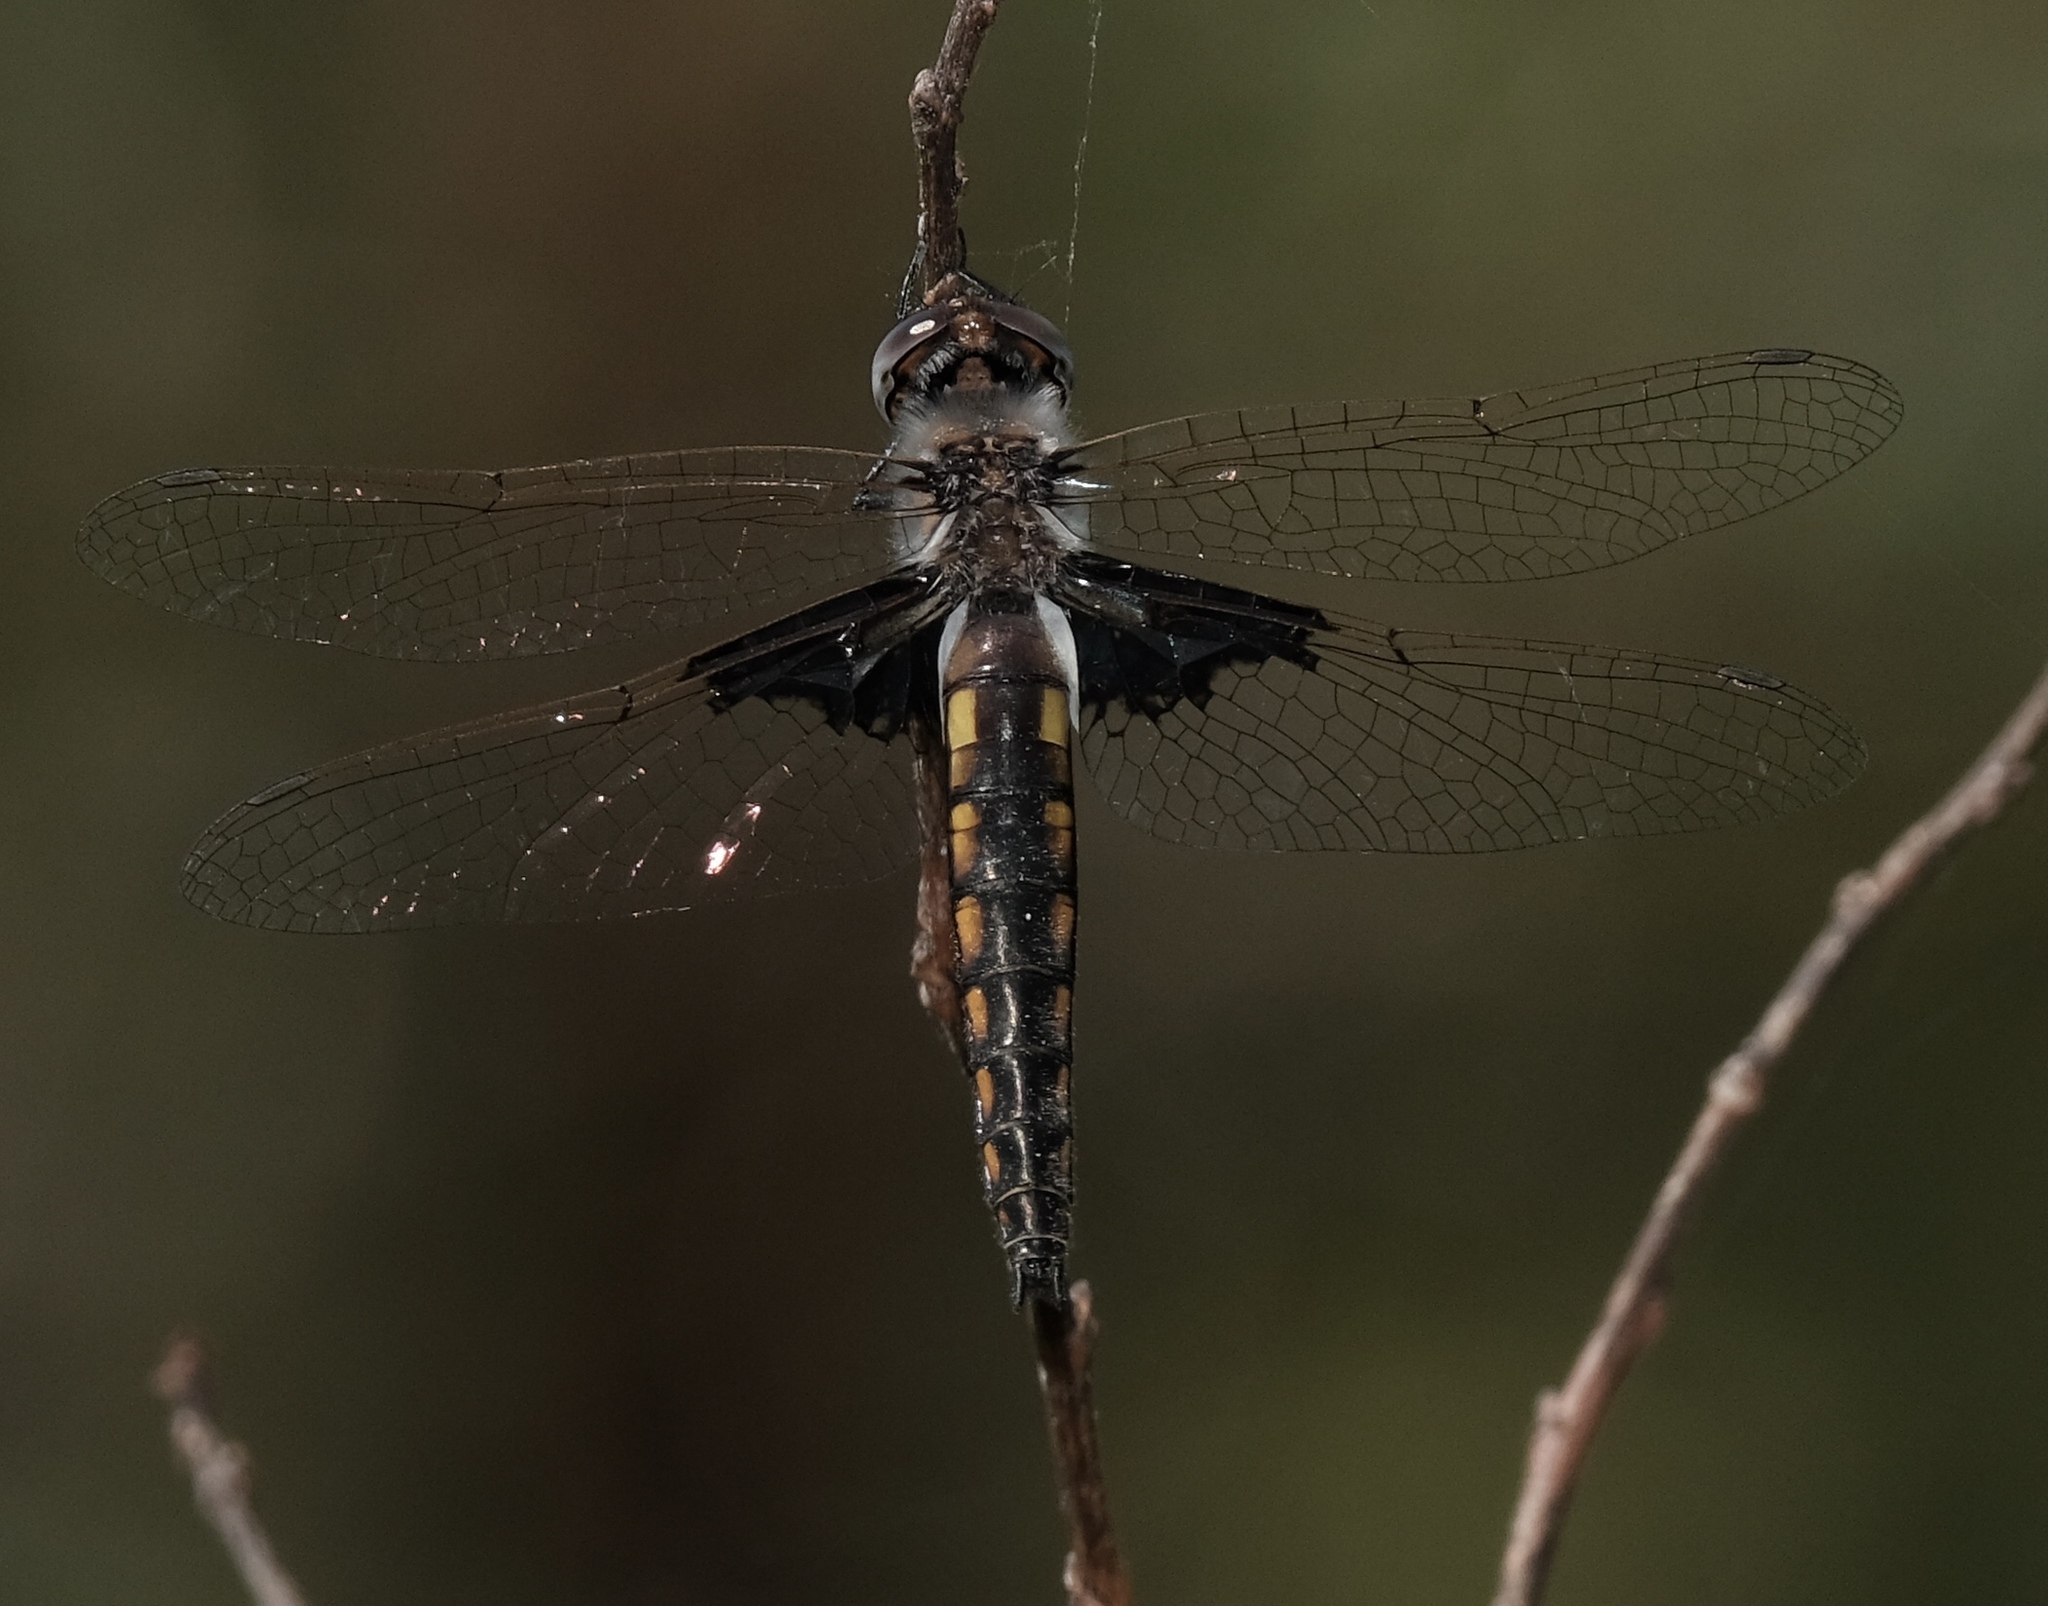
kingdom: Animalia
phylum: Arthropoda
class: Insecta
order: Odonata
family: Corduliidae
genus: Epitheca
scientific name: Epitheca semiaquea
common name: Mantled baskettail
